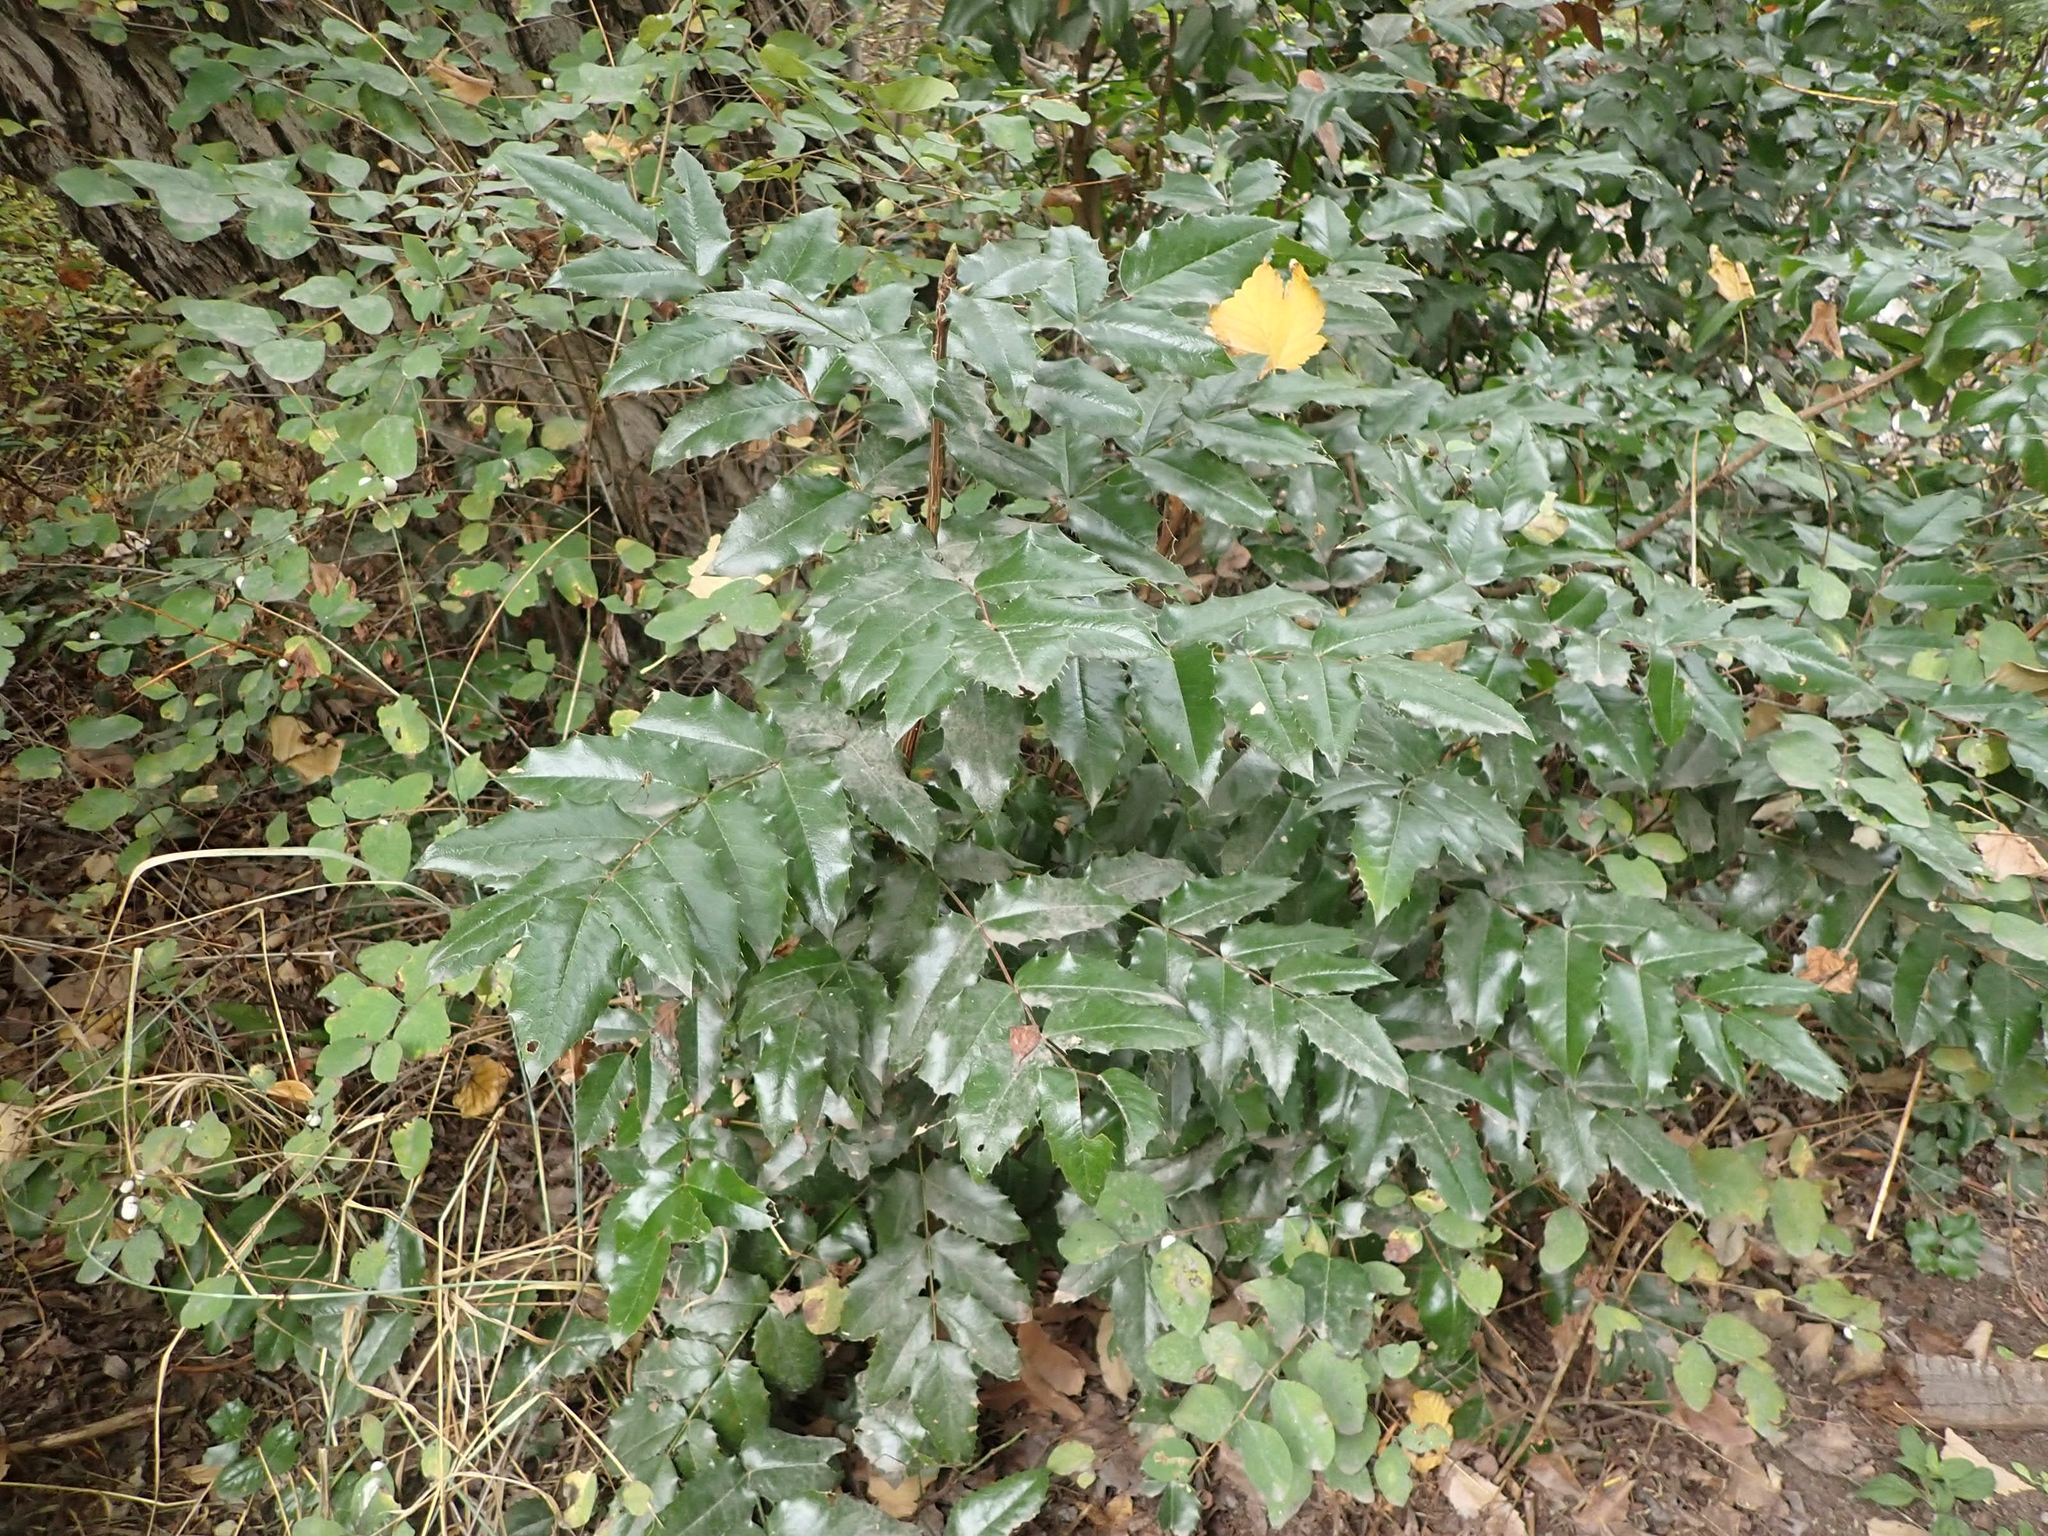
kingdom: Plantae
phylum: Tracheophyta
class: Magnoliopsida
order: Ranunculales
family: Berberidaceae
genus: Mahonia
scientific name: Mahonia aquifolium
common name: Oregon-grape
